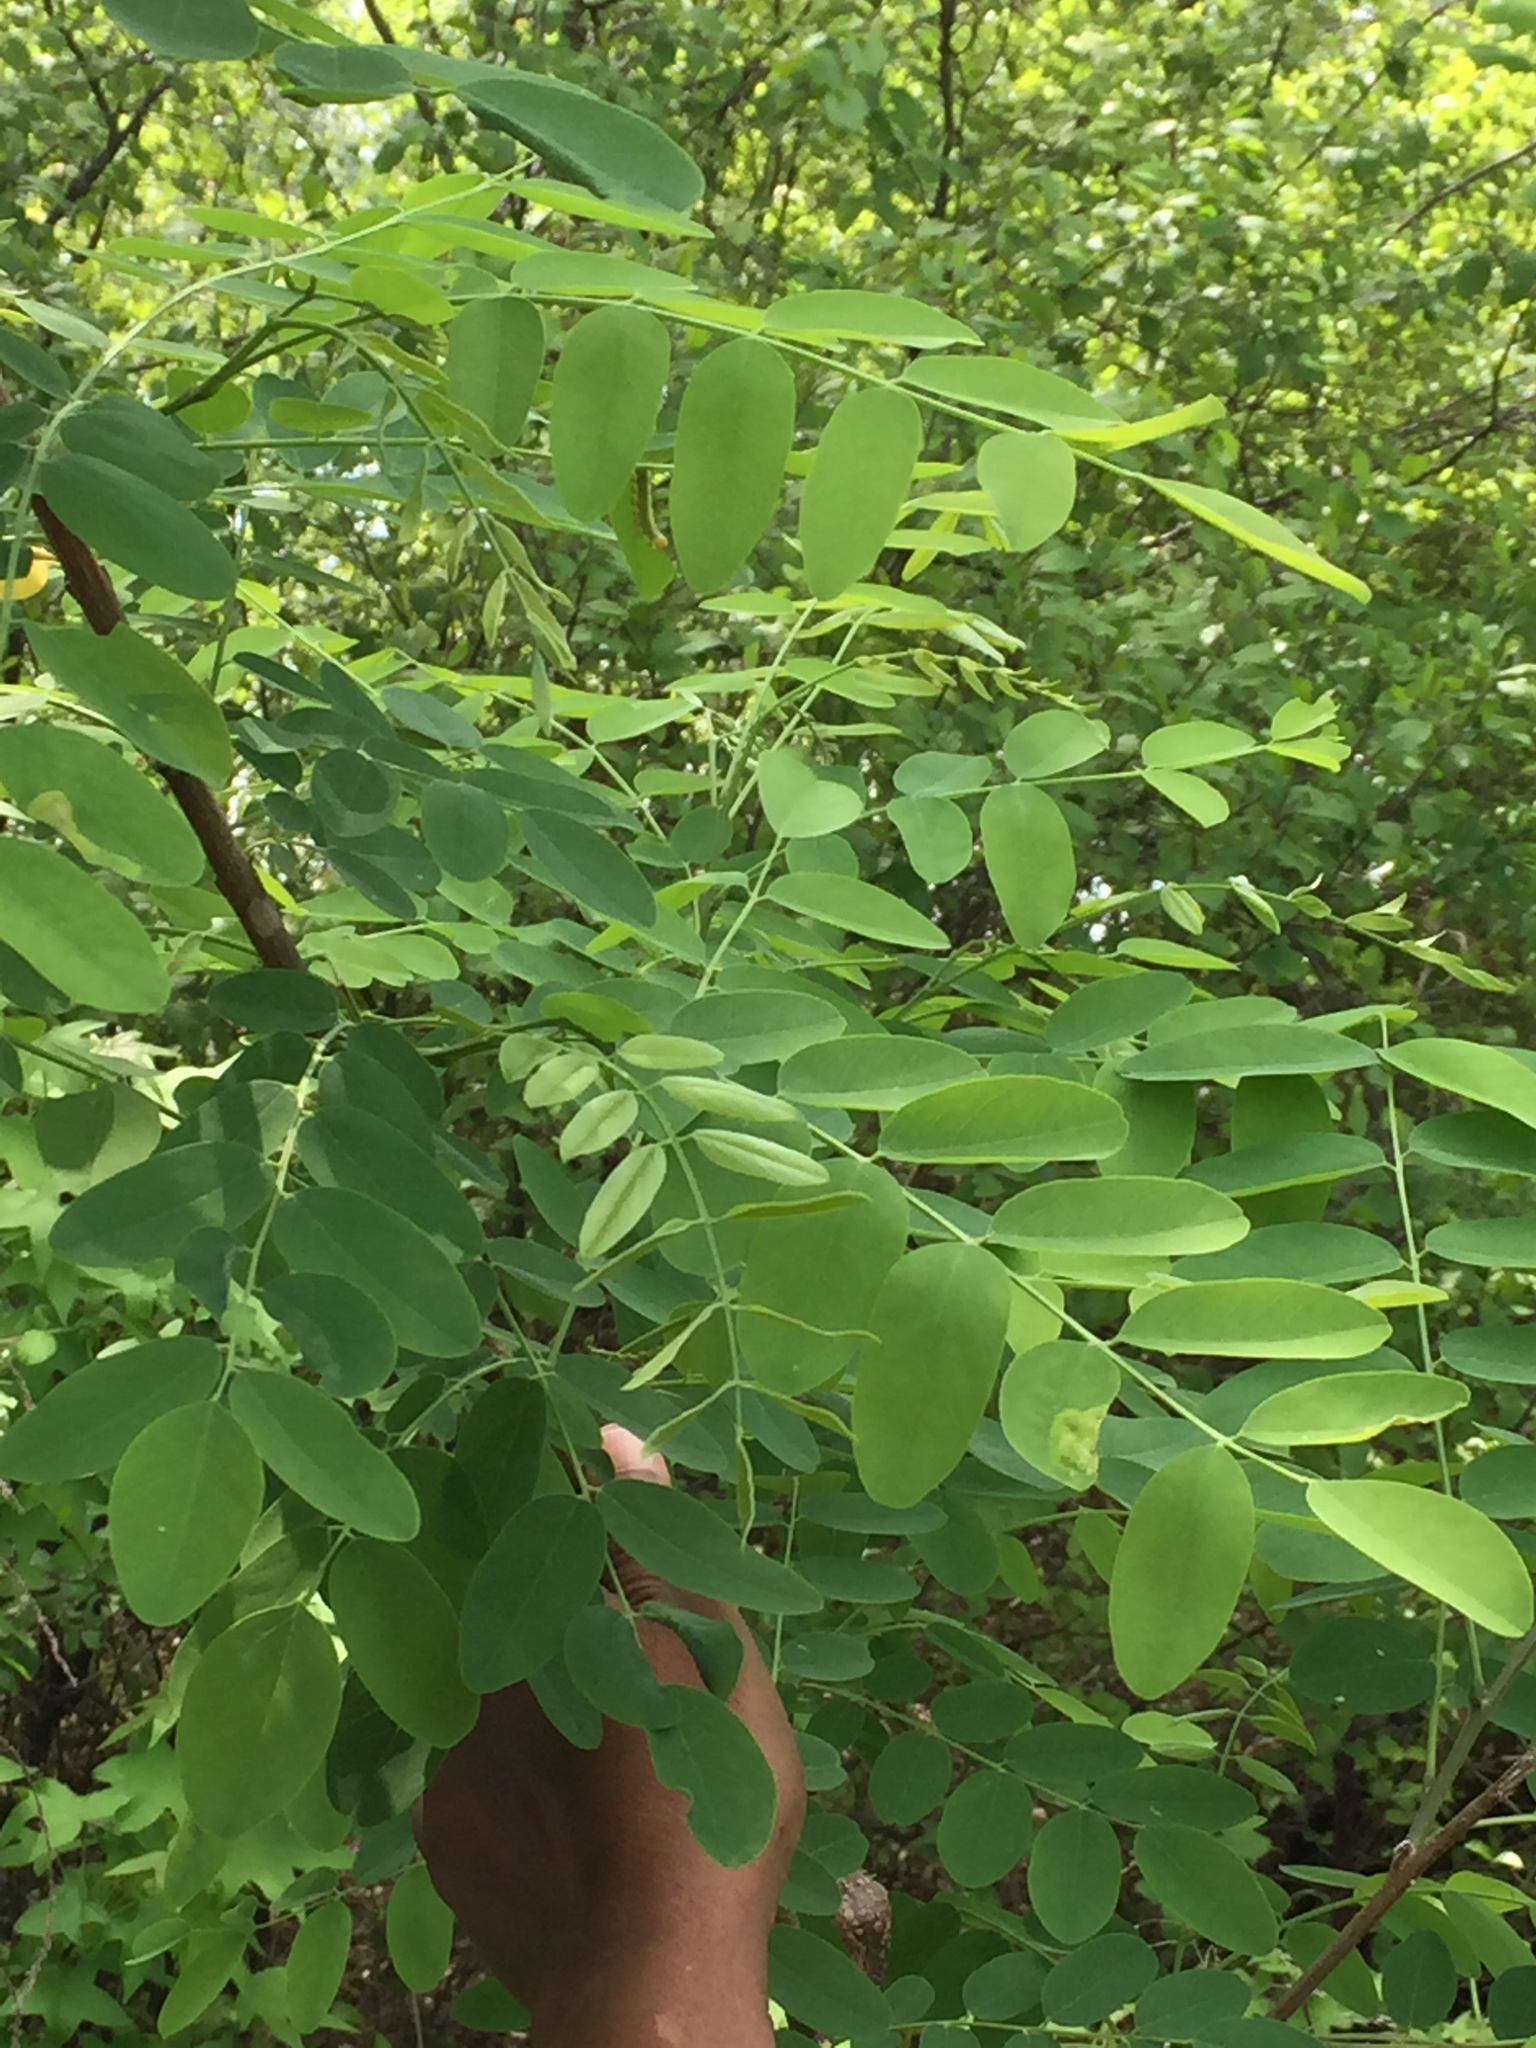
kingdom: Plantae
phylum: Tracheophyta
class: Magnoliopsida
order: Fabales
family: Fabaceae
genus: Robinia
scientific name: Robinia pseudoacacia
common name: Black locust
